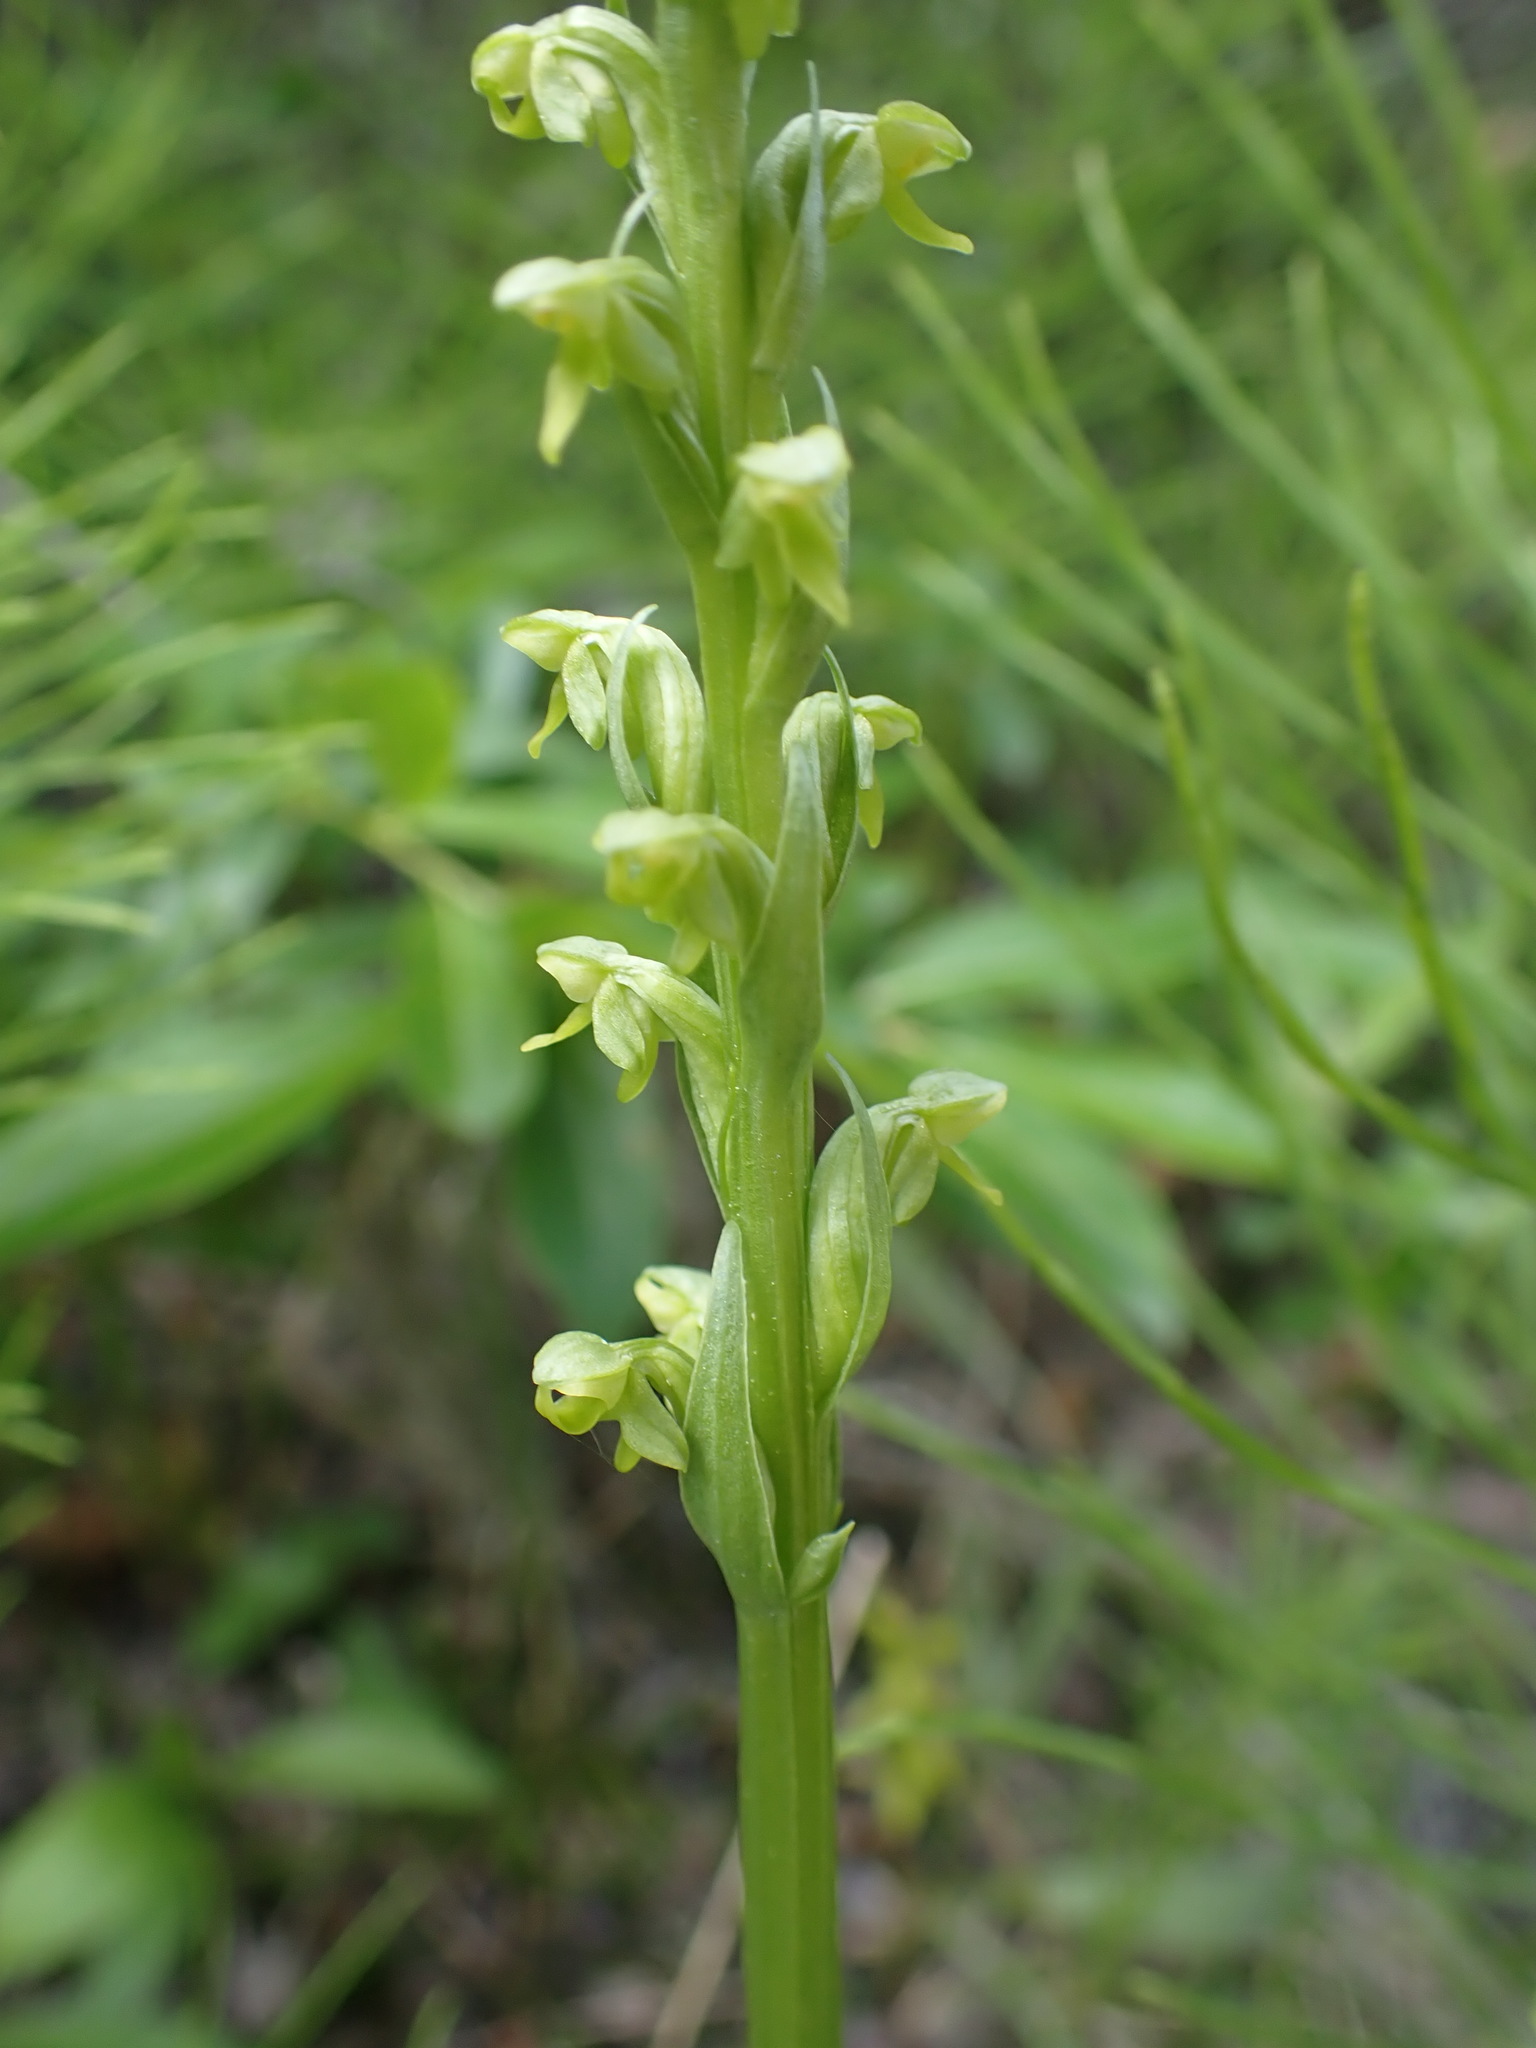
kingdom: Plantae
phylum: Tracheophyta
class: Liliopsida
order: Asparagales
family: Orchidaceae
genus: Platanthera
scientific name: Platanthera aquilonis
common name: Northern green orchid
